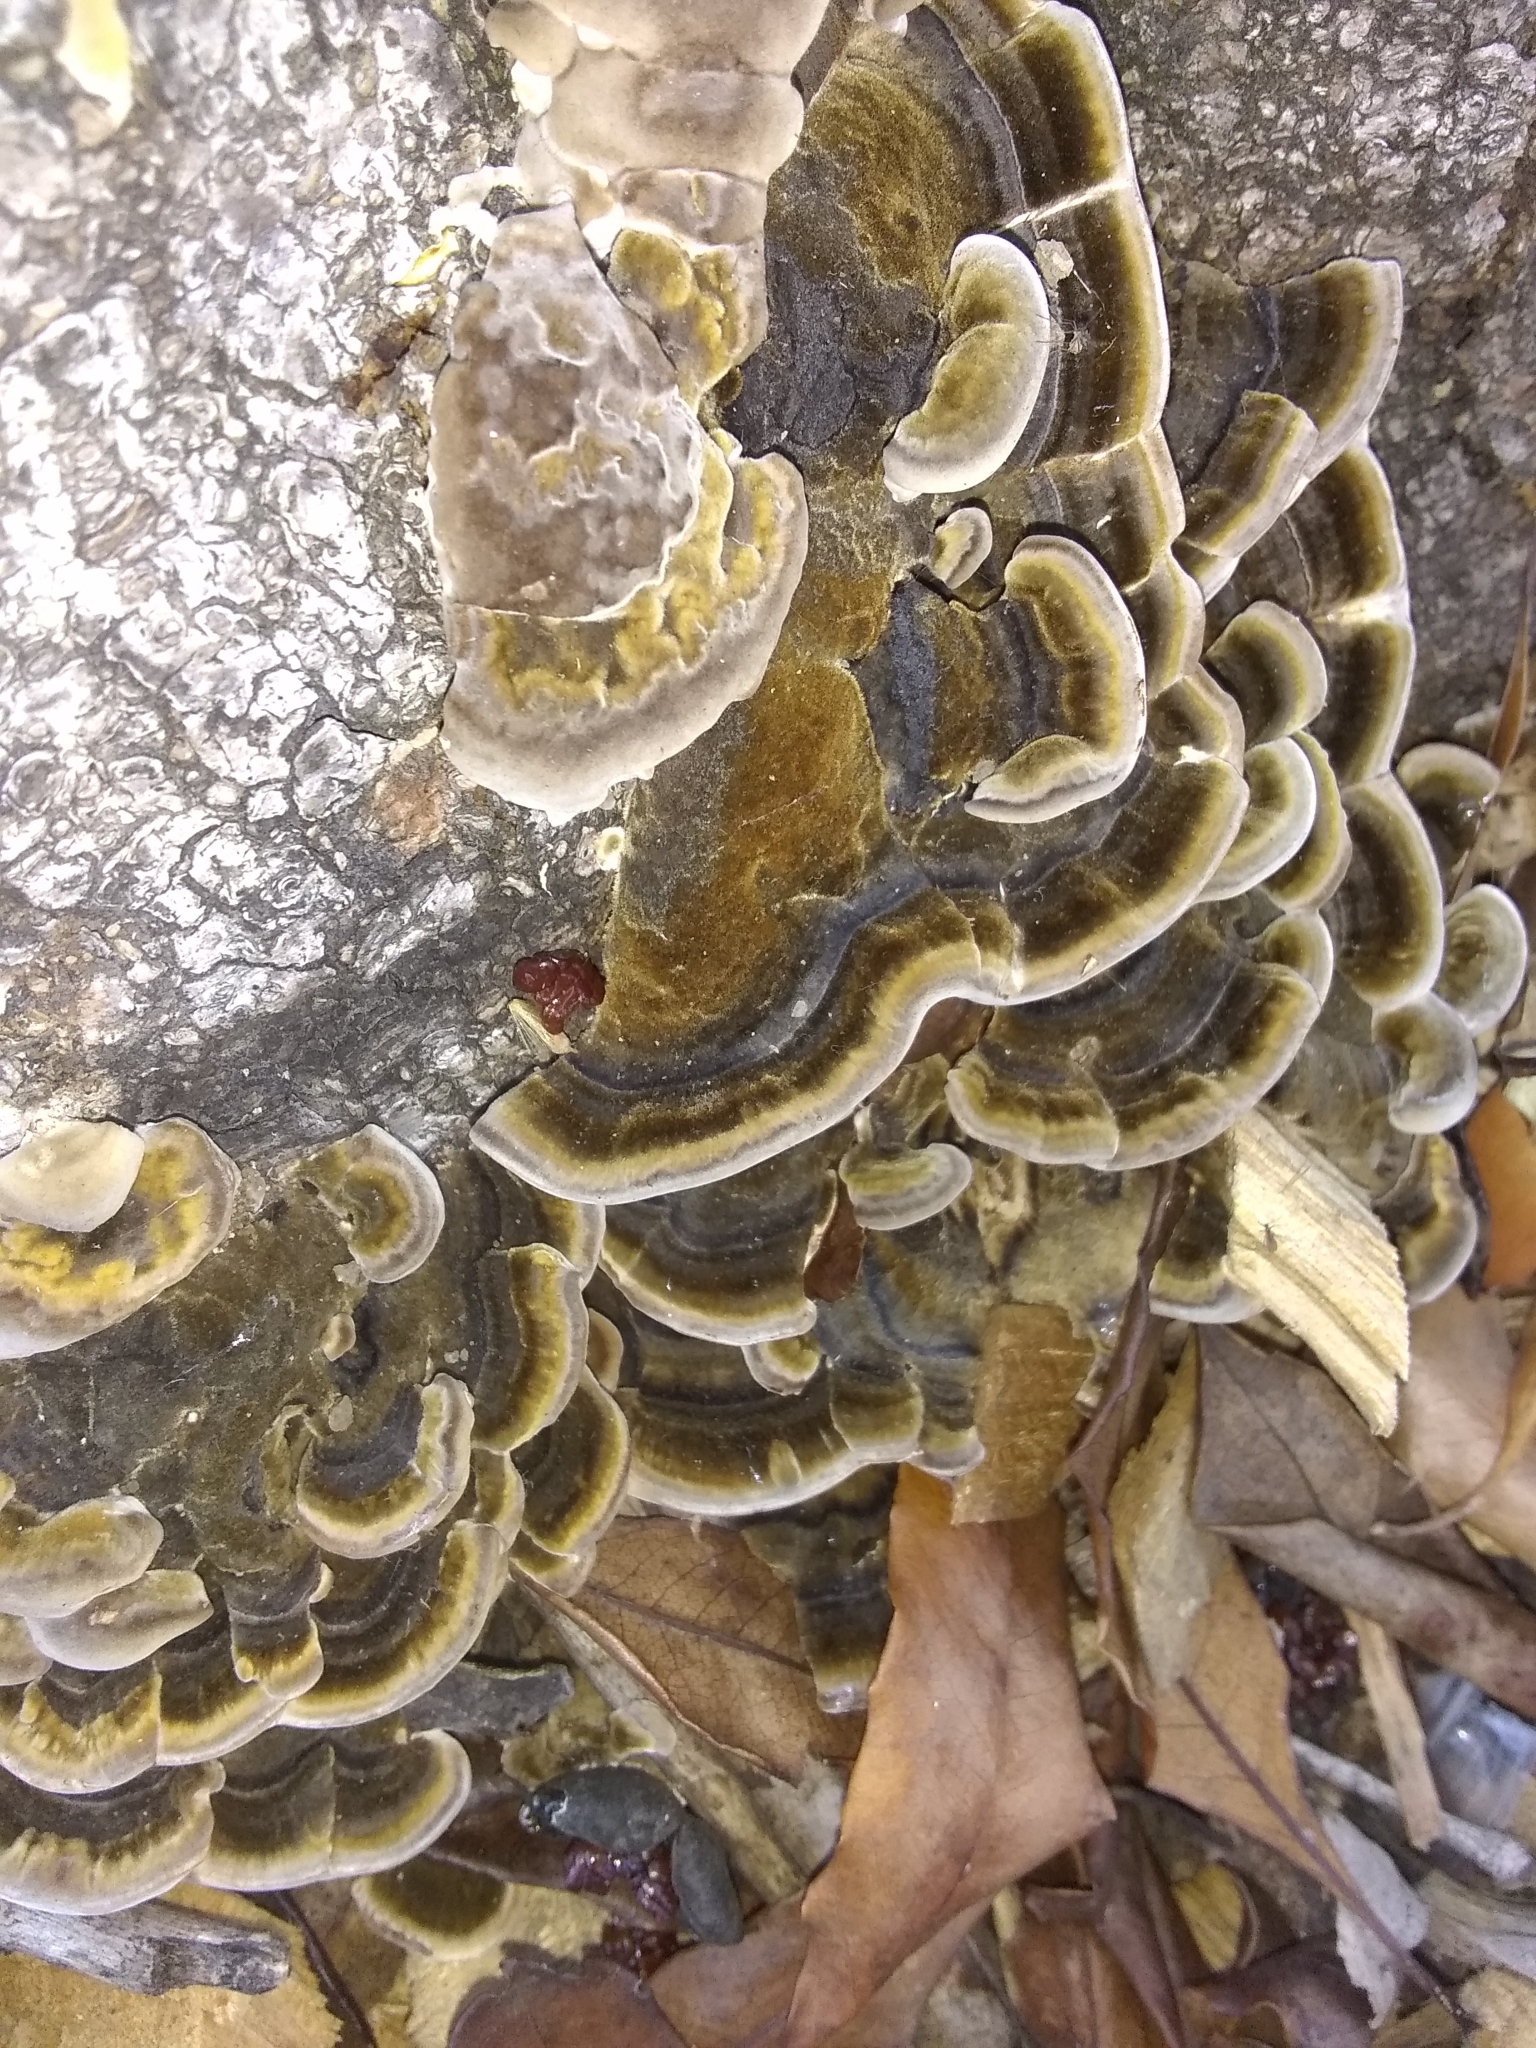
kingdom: Fungi
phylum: Basidiomycota
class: Agaricomycetes
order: Polyporales
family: Polyporaceae
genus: Trametes
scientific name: Trametes versicolor
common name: Turkeytail
